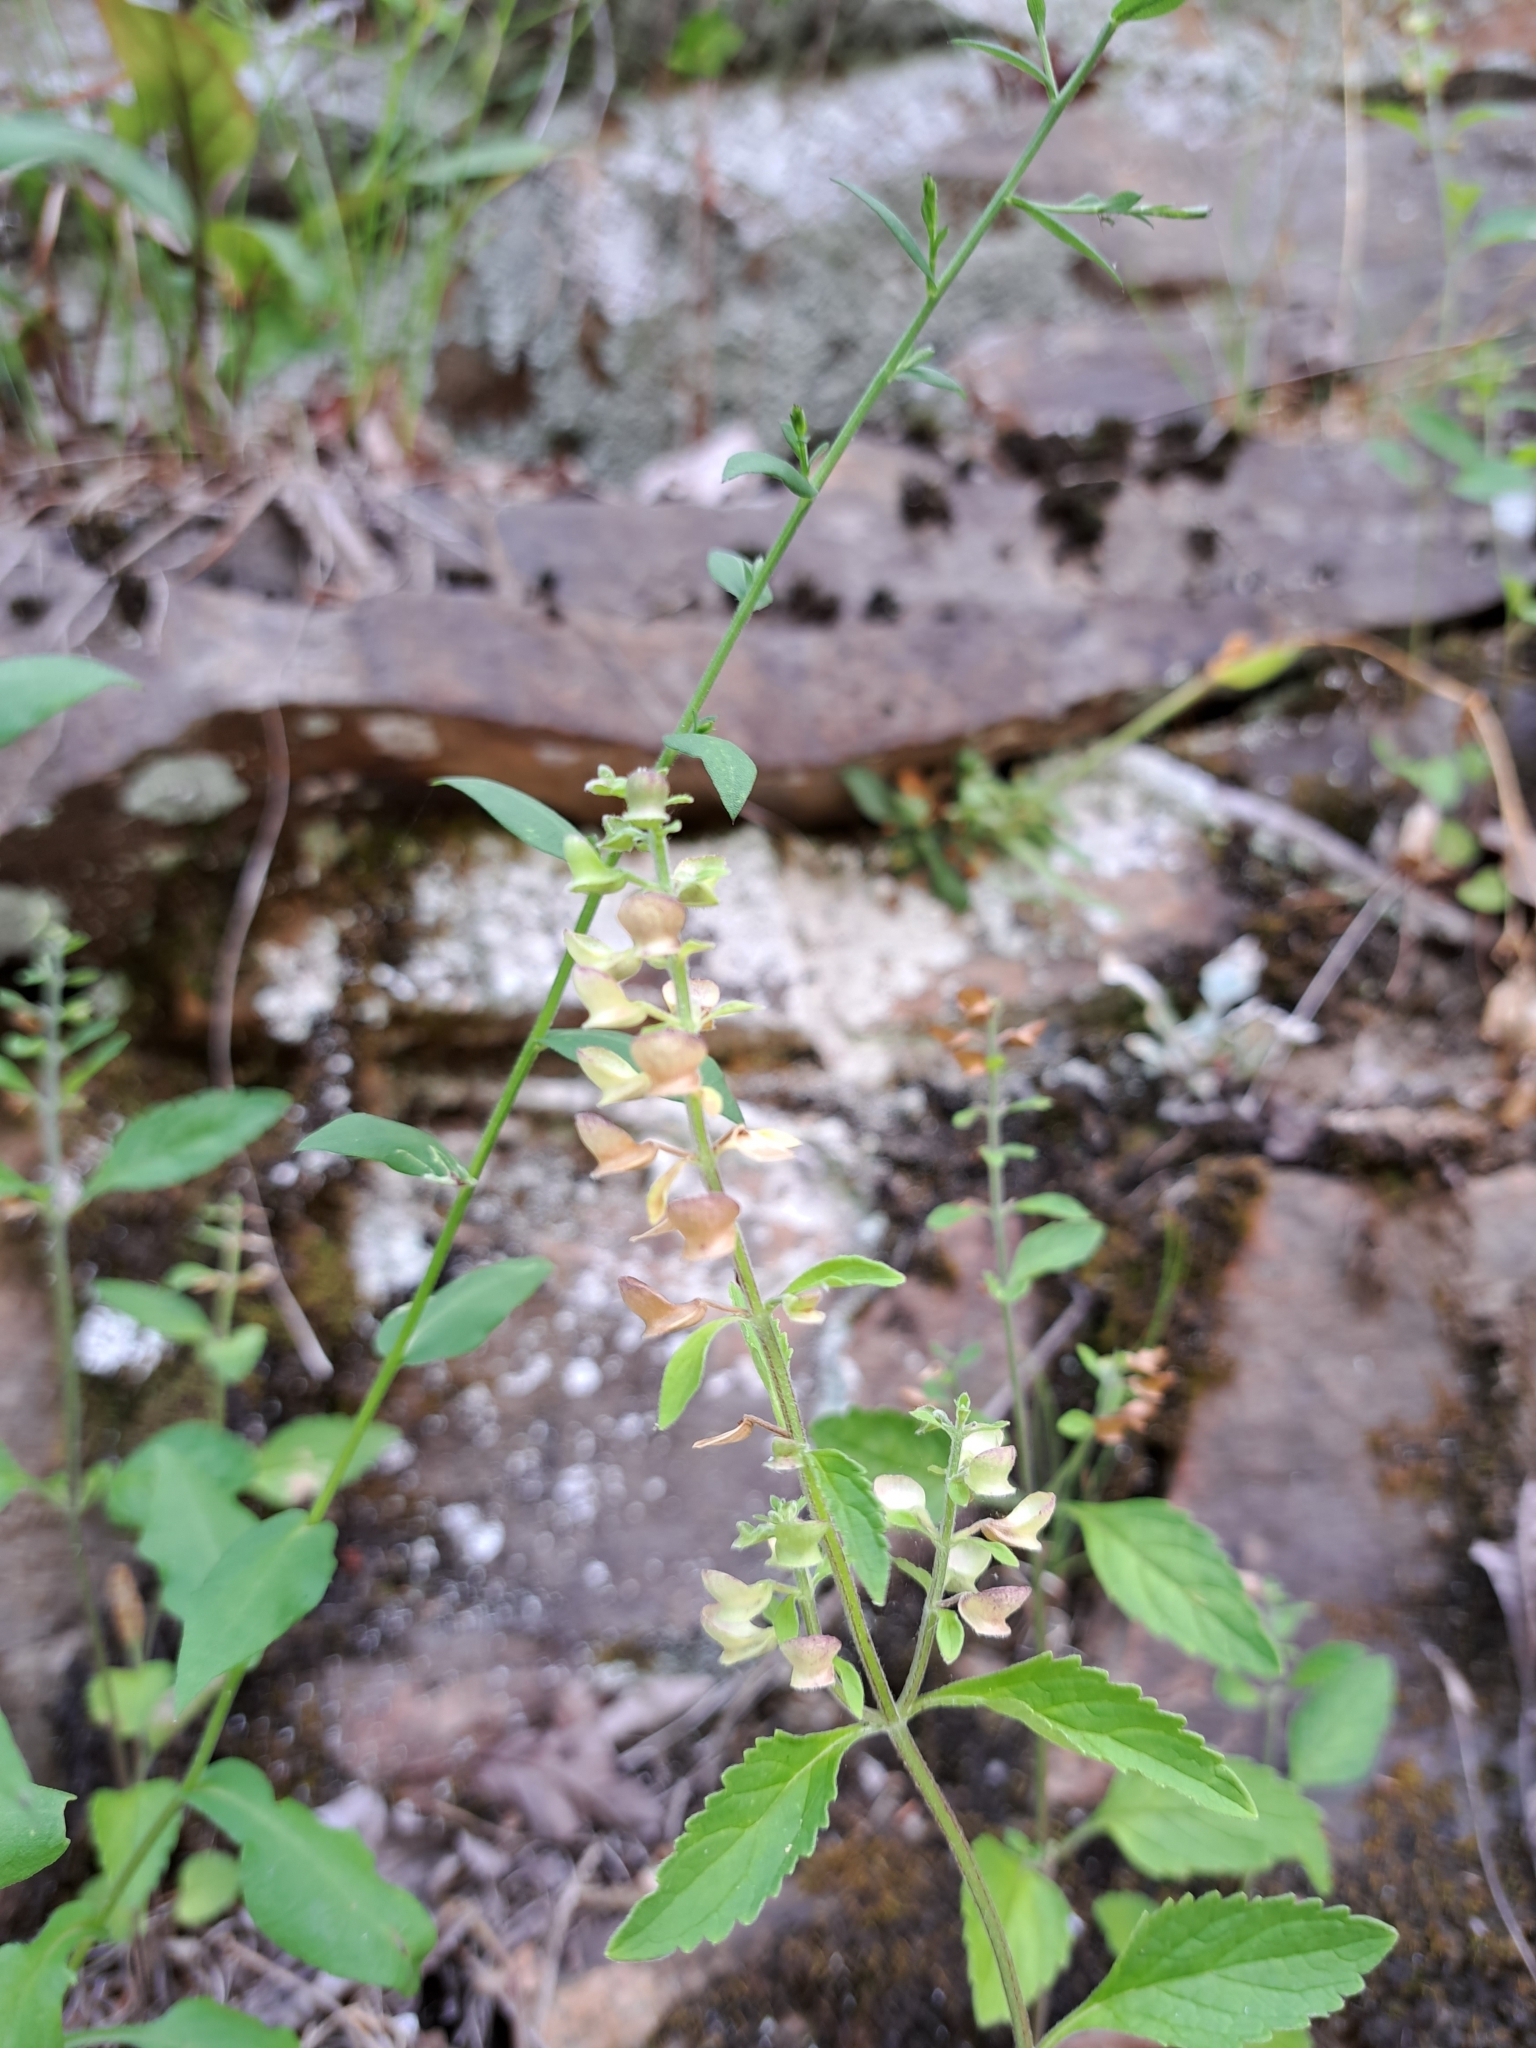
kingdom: Plantae
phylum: Tracheophyta
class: Magnoliopsida
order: Lamiales
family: Lamiaceae
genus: Scutellaria
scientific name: Scutellaria elliptica
